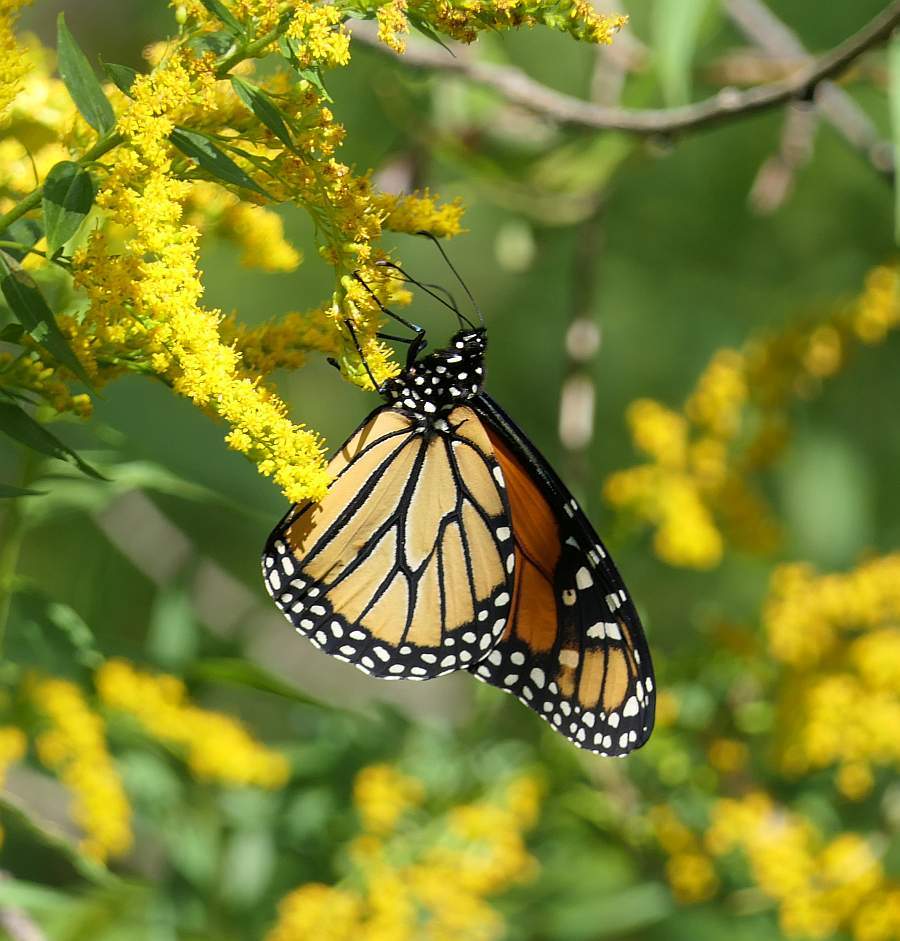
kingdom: Animalia
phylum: Arthropoda
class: Insecta
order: Lepidoptera
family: Nymphalidae
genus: Danaus
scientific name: Danaus plexippus
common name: Monarch
